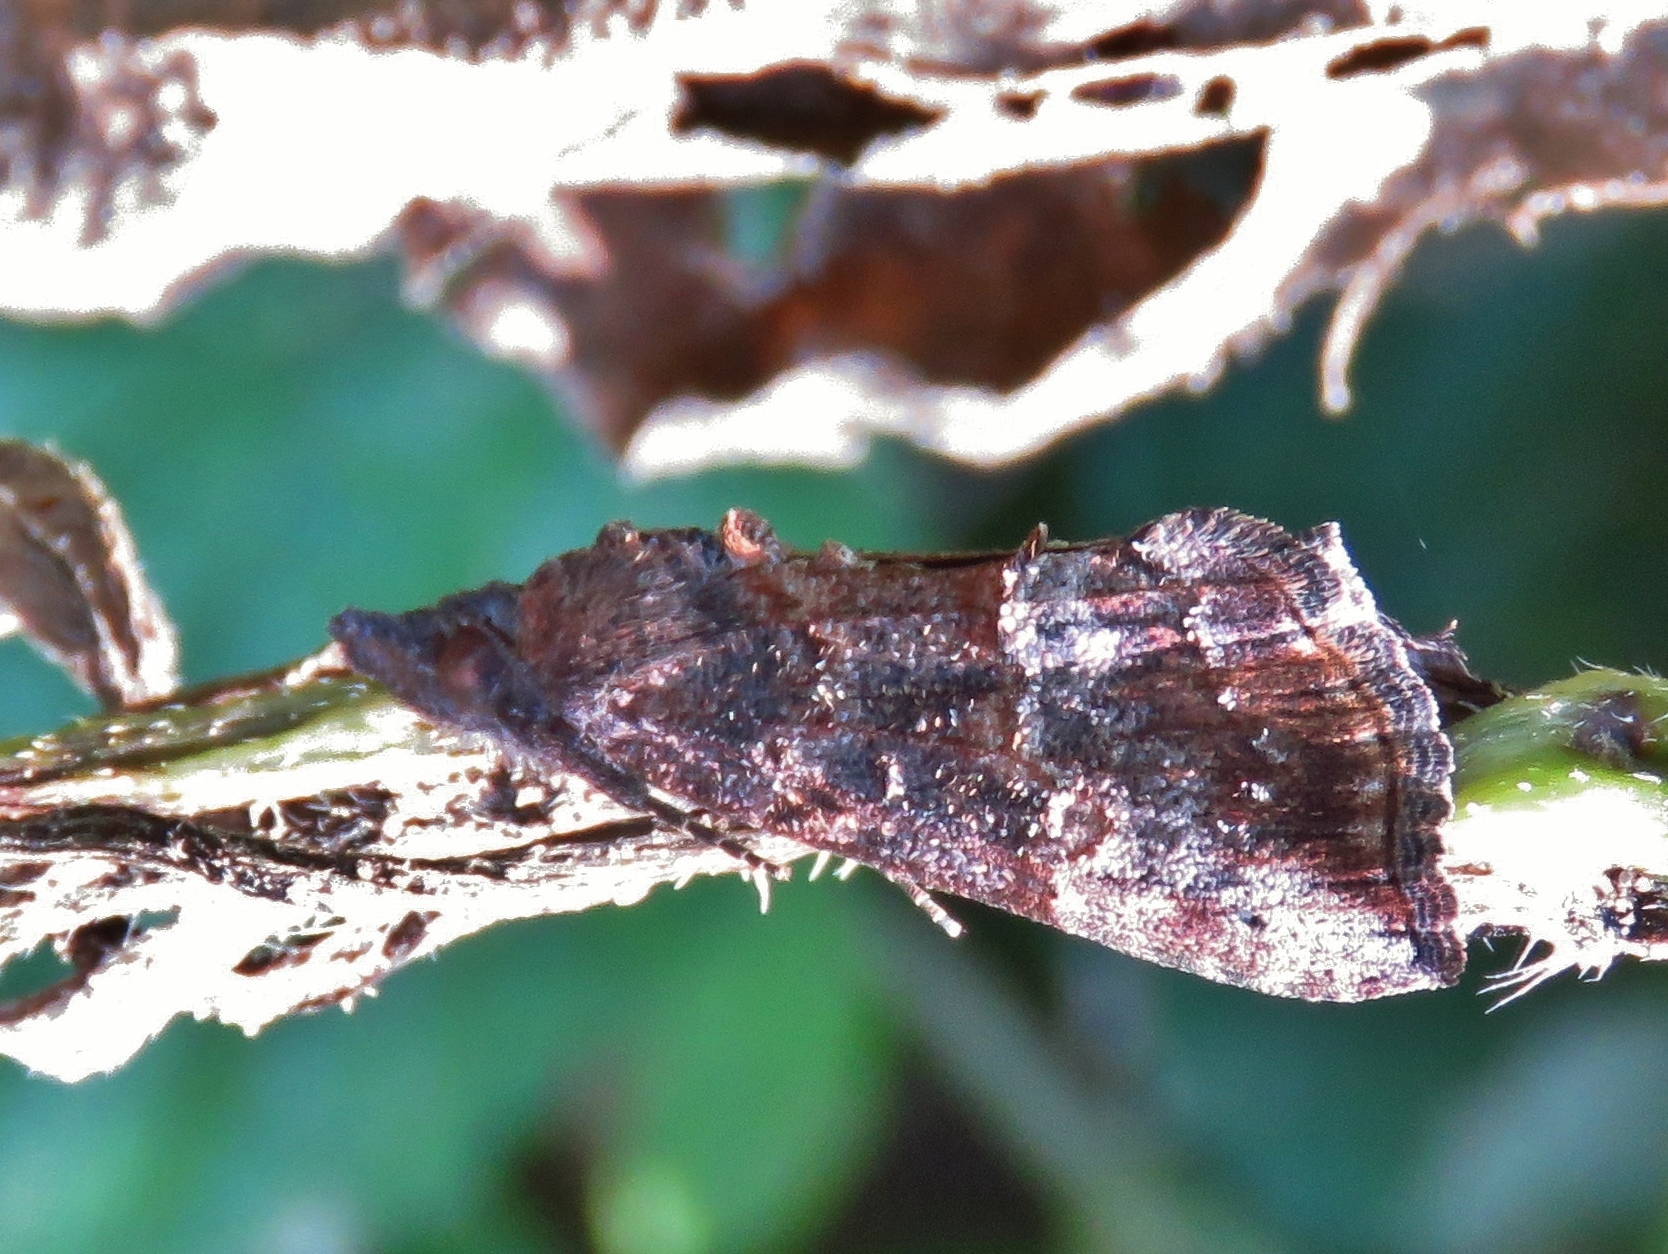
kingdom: Animalia
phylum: Arthropoda
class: Insecta
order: Lepidoptera
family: Erebidae
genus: Hypena
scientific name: Hypena scabra
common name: Green cloverworm
